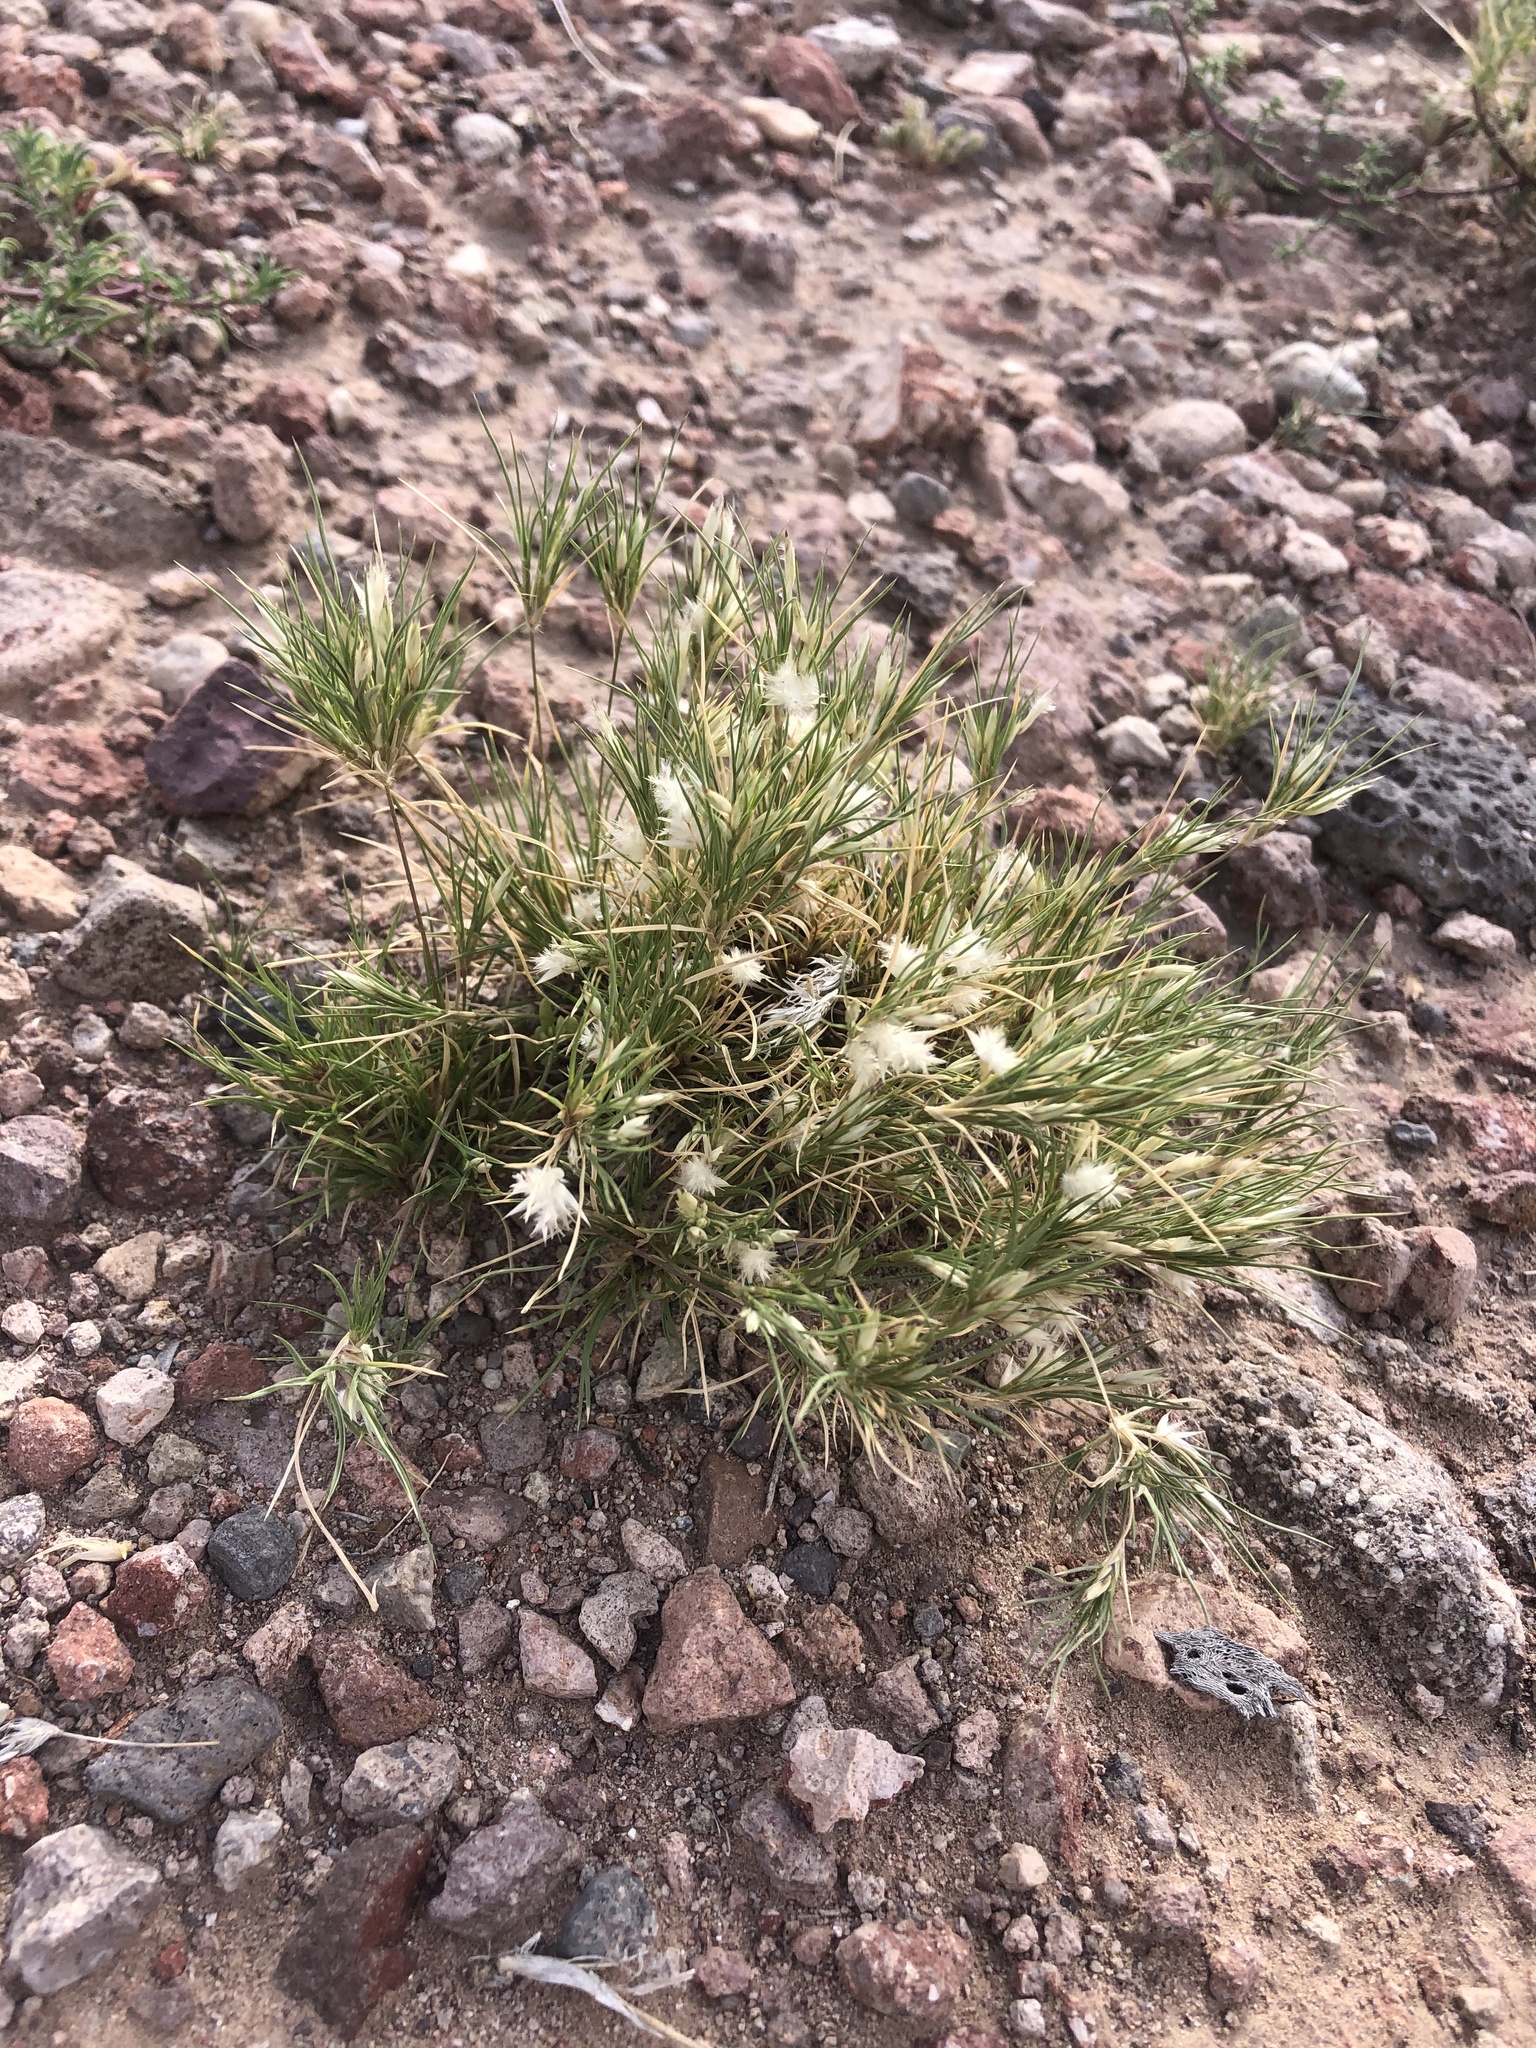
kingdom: Plantae
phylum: Tracheophyta
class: Liliopsida
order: Poales
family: Poaceae
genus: Dasyochloa
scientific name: Dasyochloa pulchella
